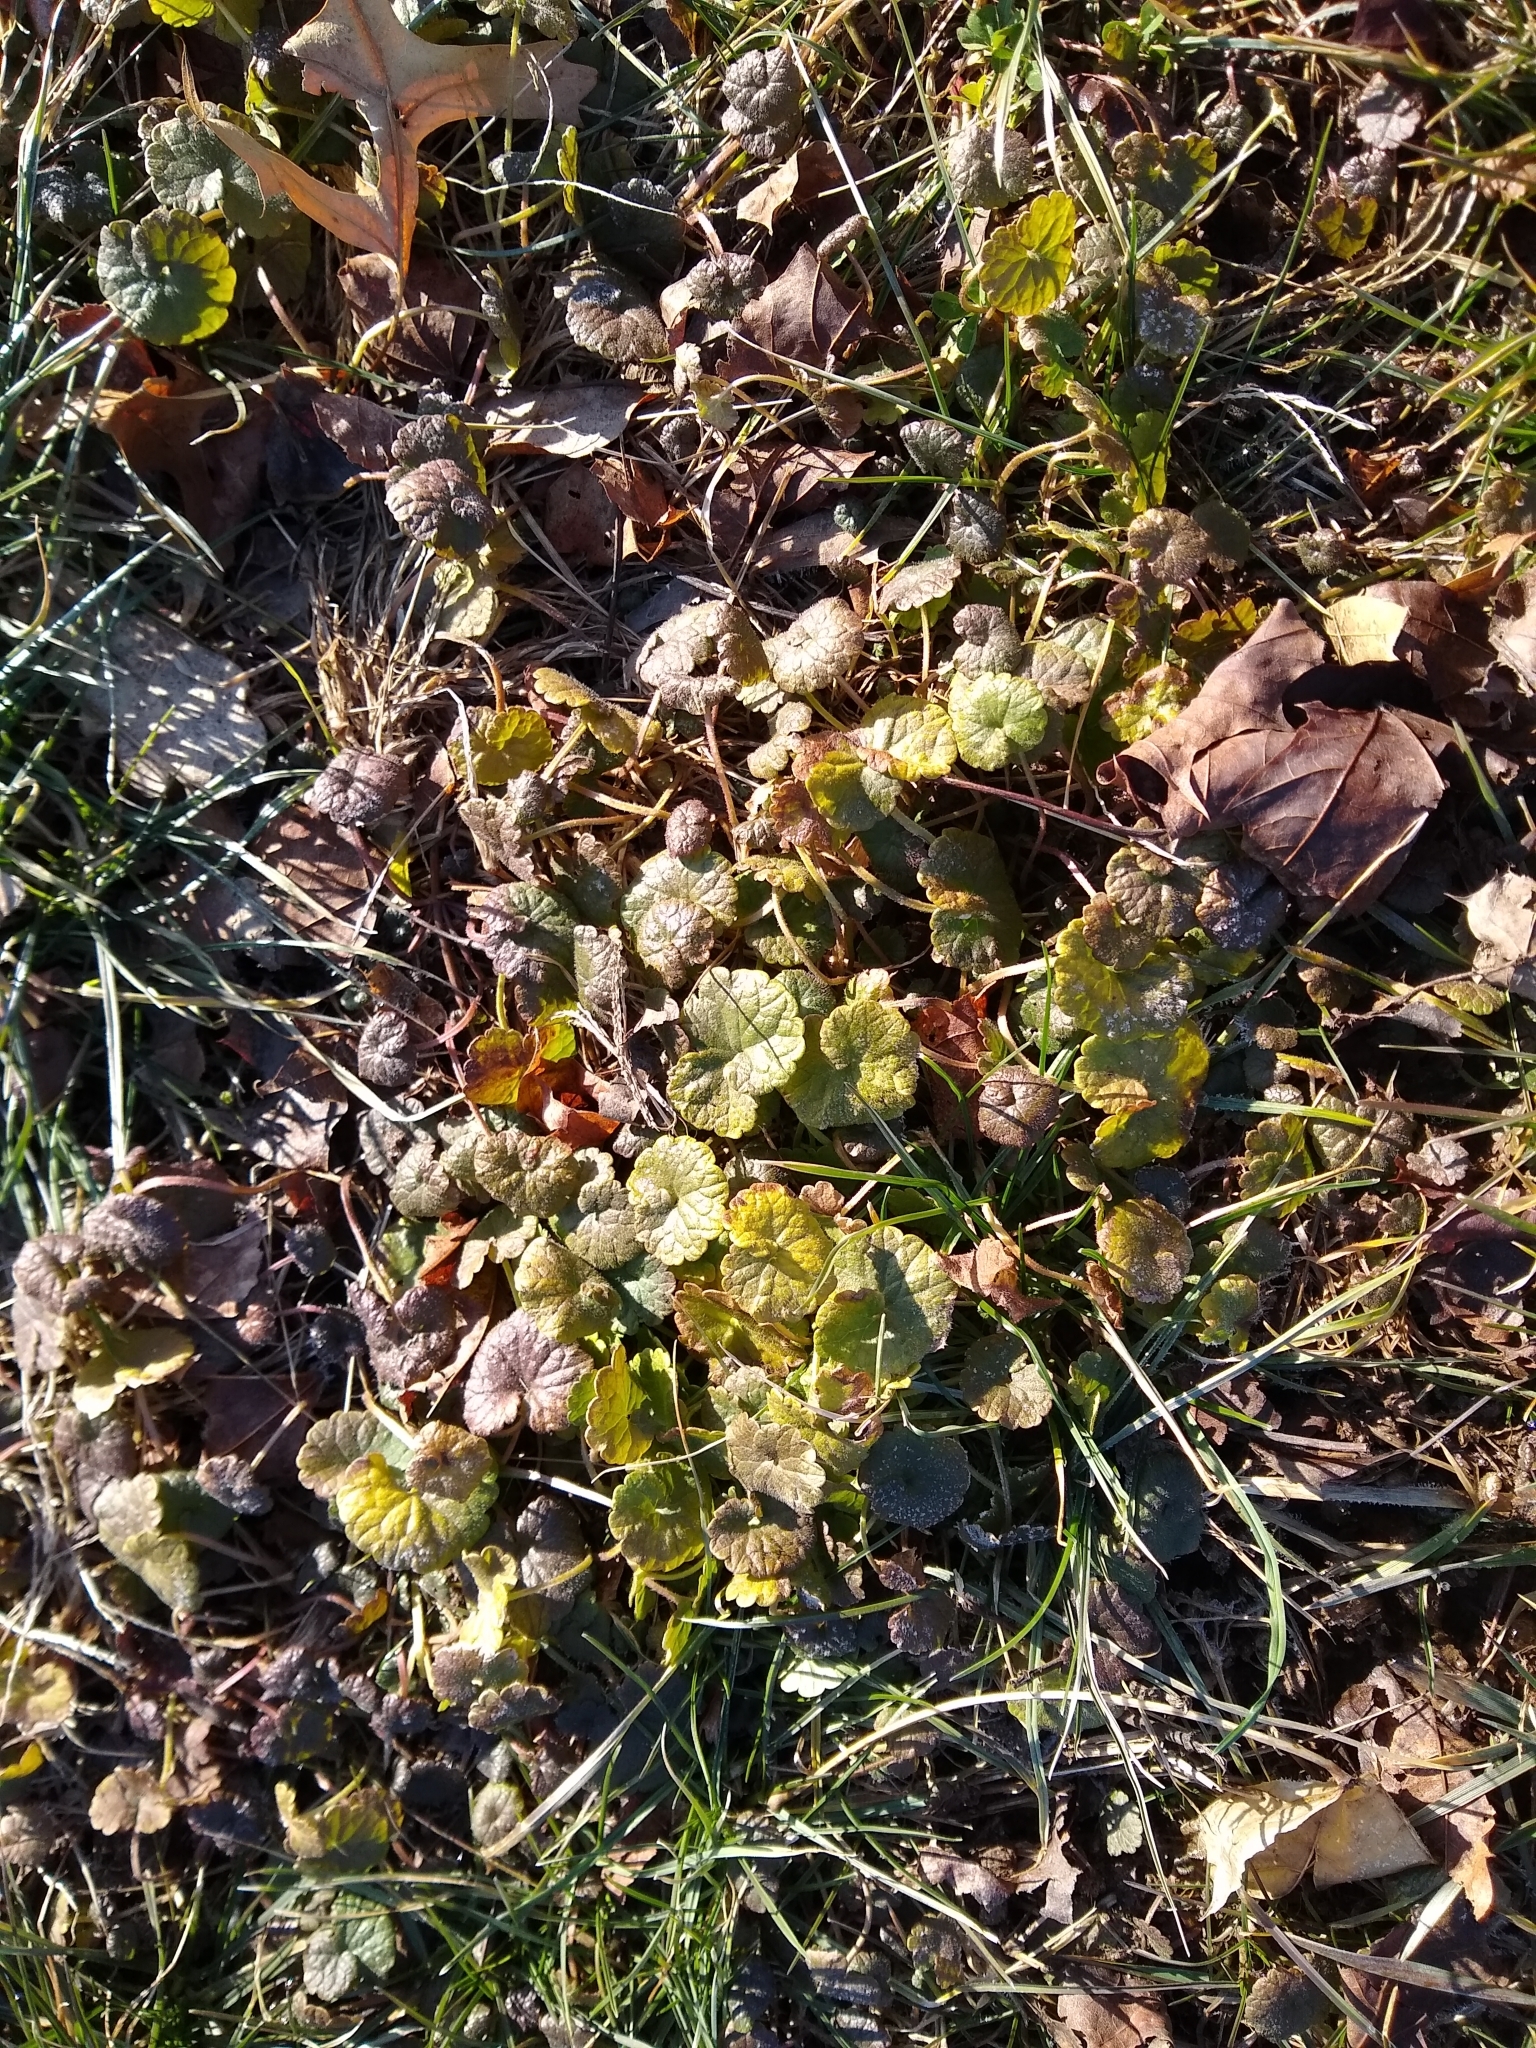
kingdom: Plantae
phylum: Tracheophyta
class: Magnoliopsida
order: Lamiales
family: Lamiaceae
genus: Glechoma
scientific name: Glechoma hederacea
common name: Ground ivy
